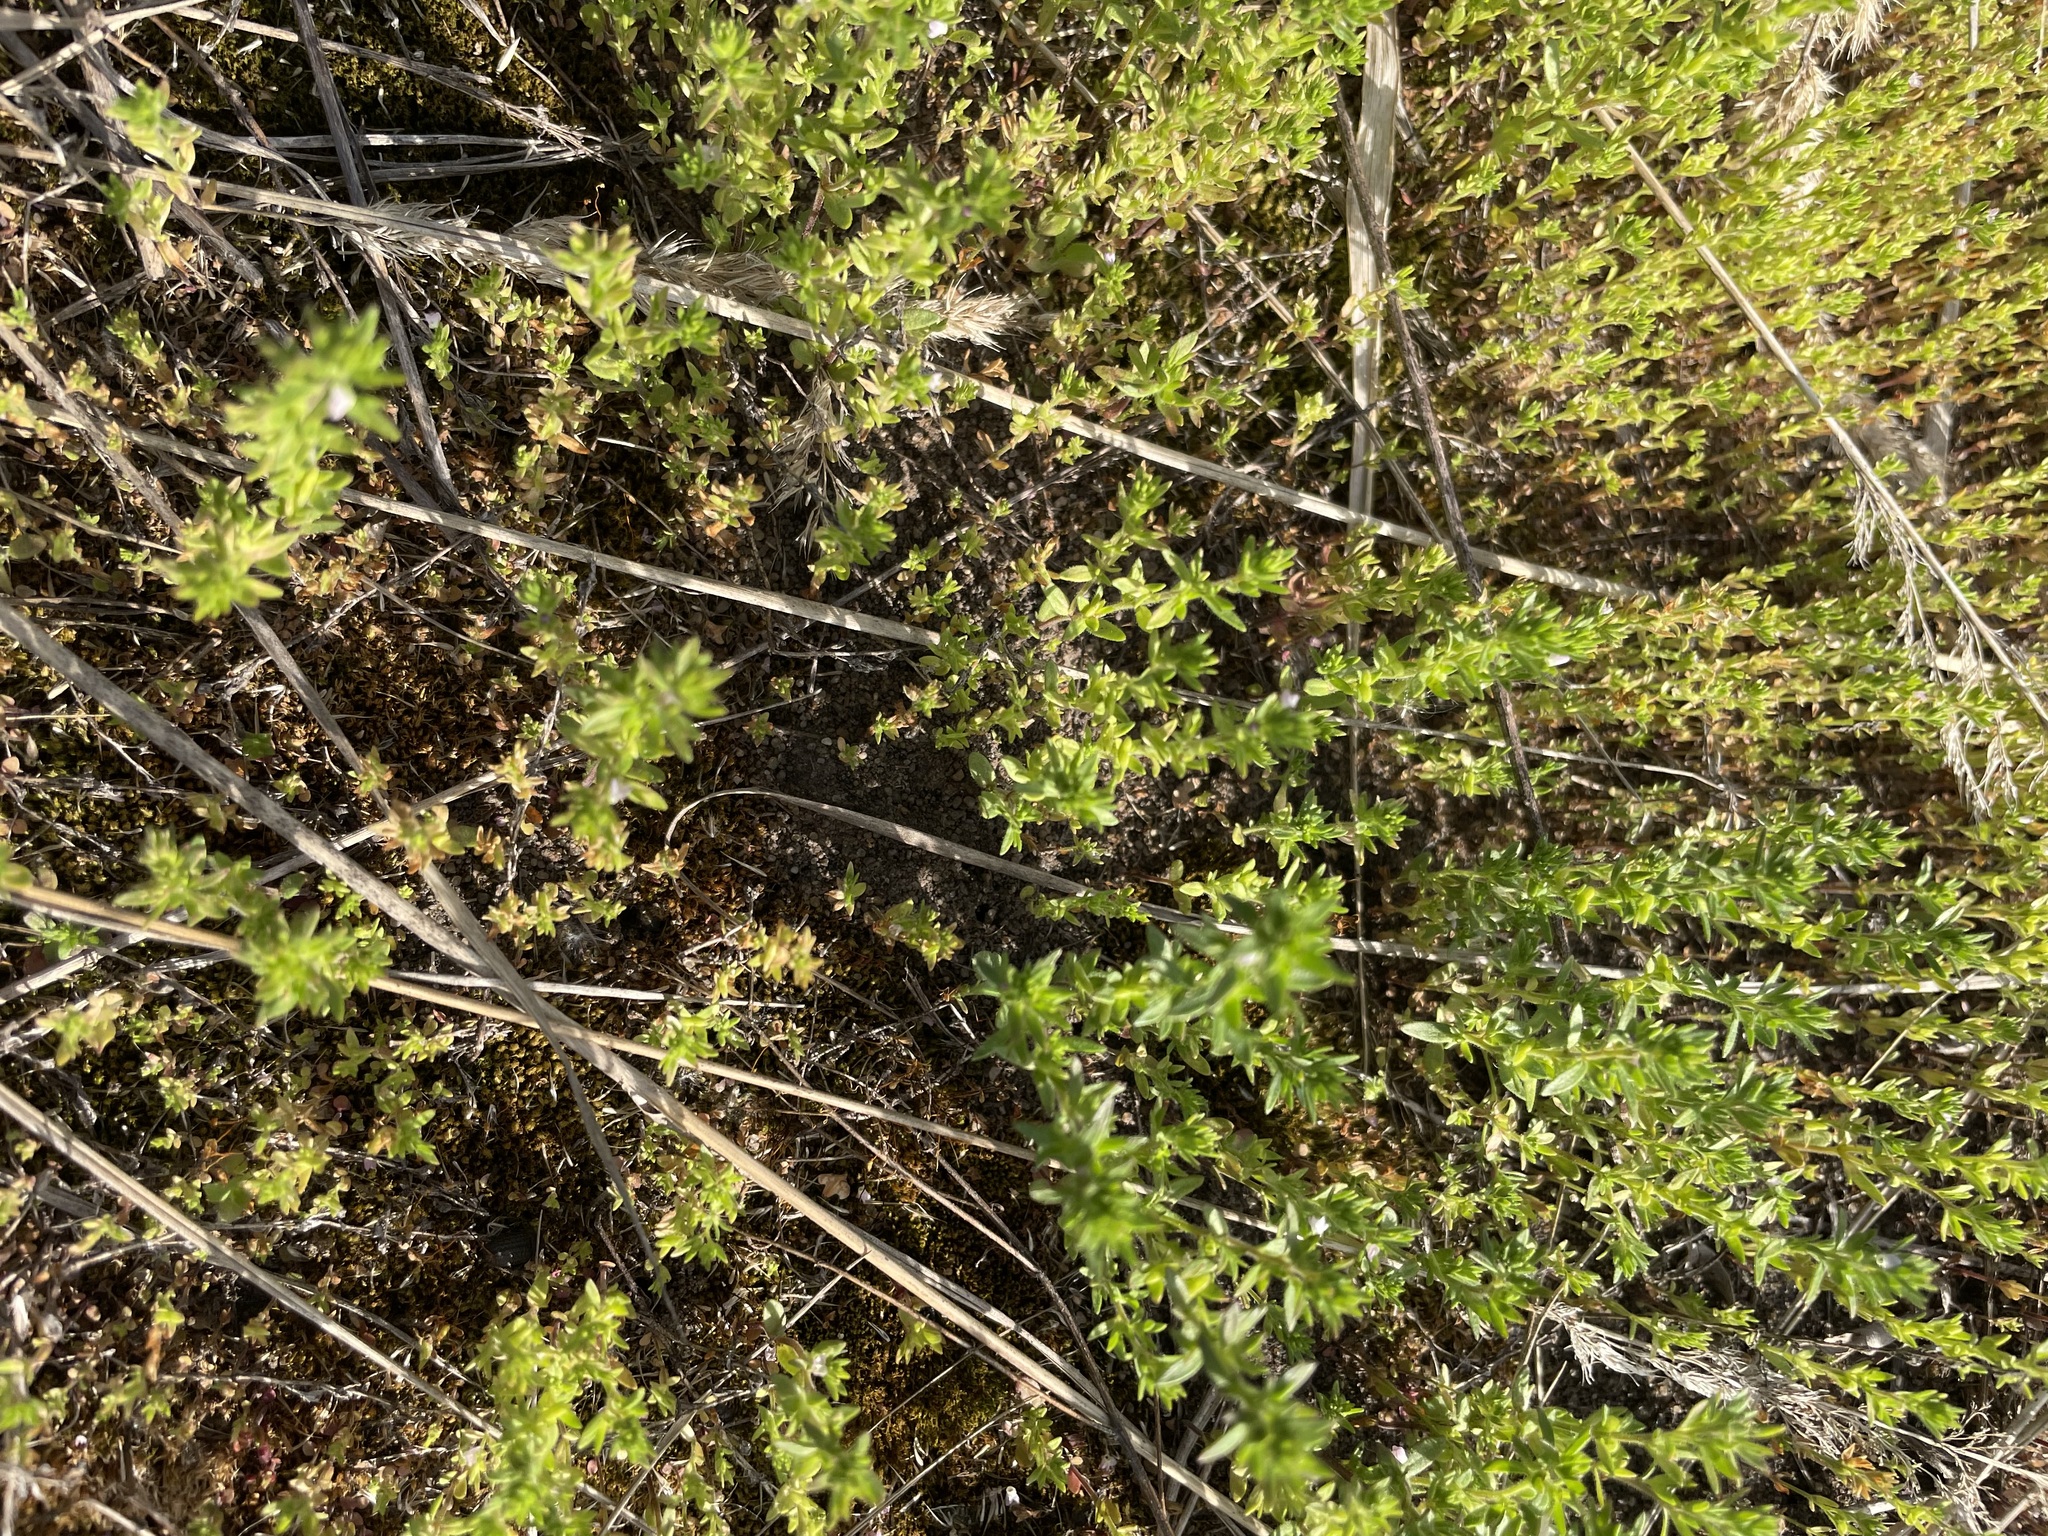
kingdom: Plantae
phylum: Tracheophyta
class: Magnoliopsida
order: Lamiales
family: Plantaginaceae
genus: Veronica
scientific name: Veronica verna
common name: Spring speedwell
